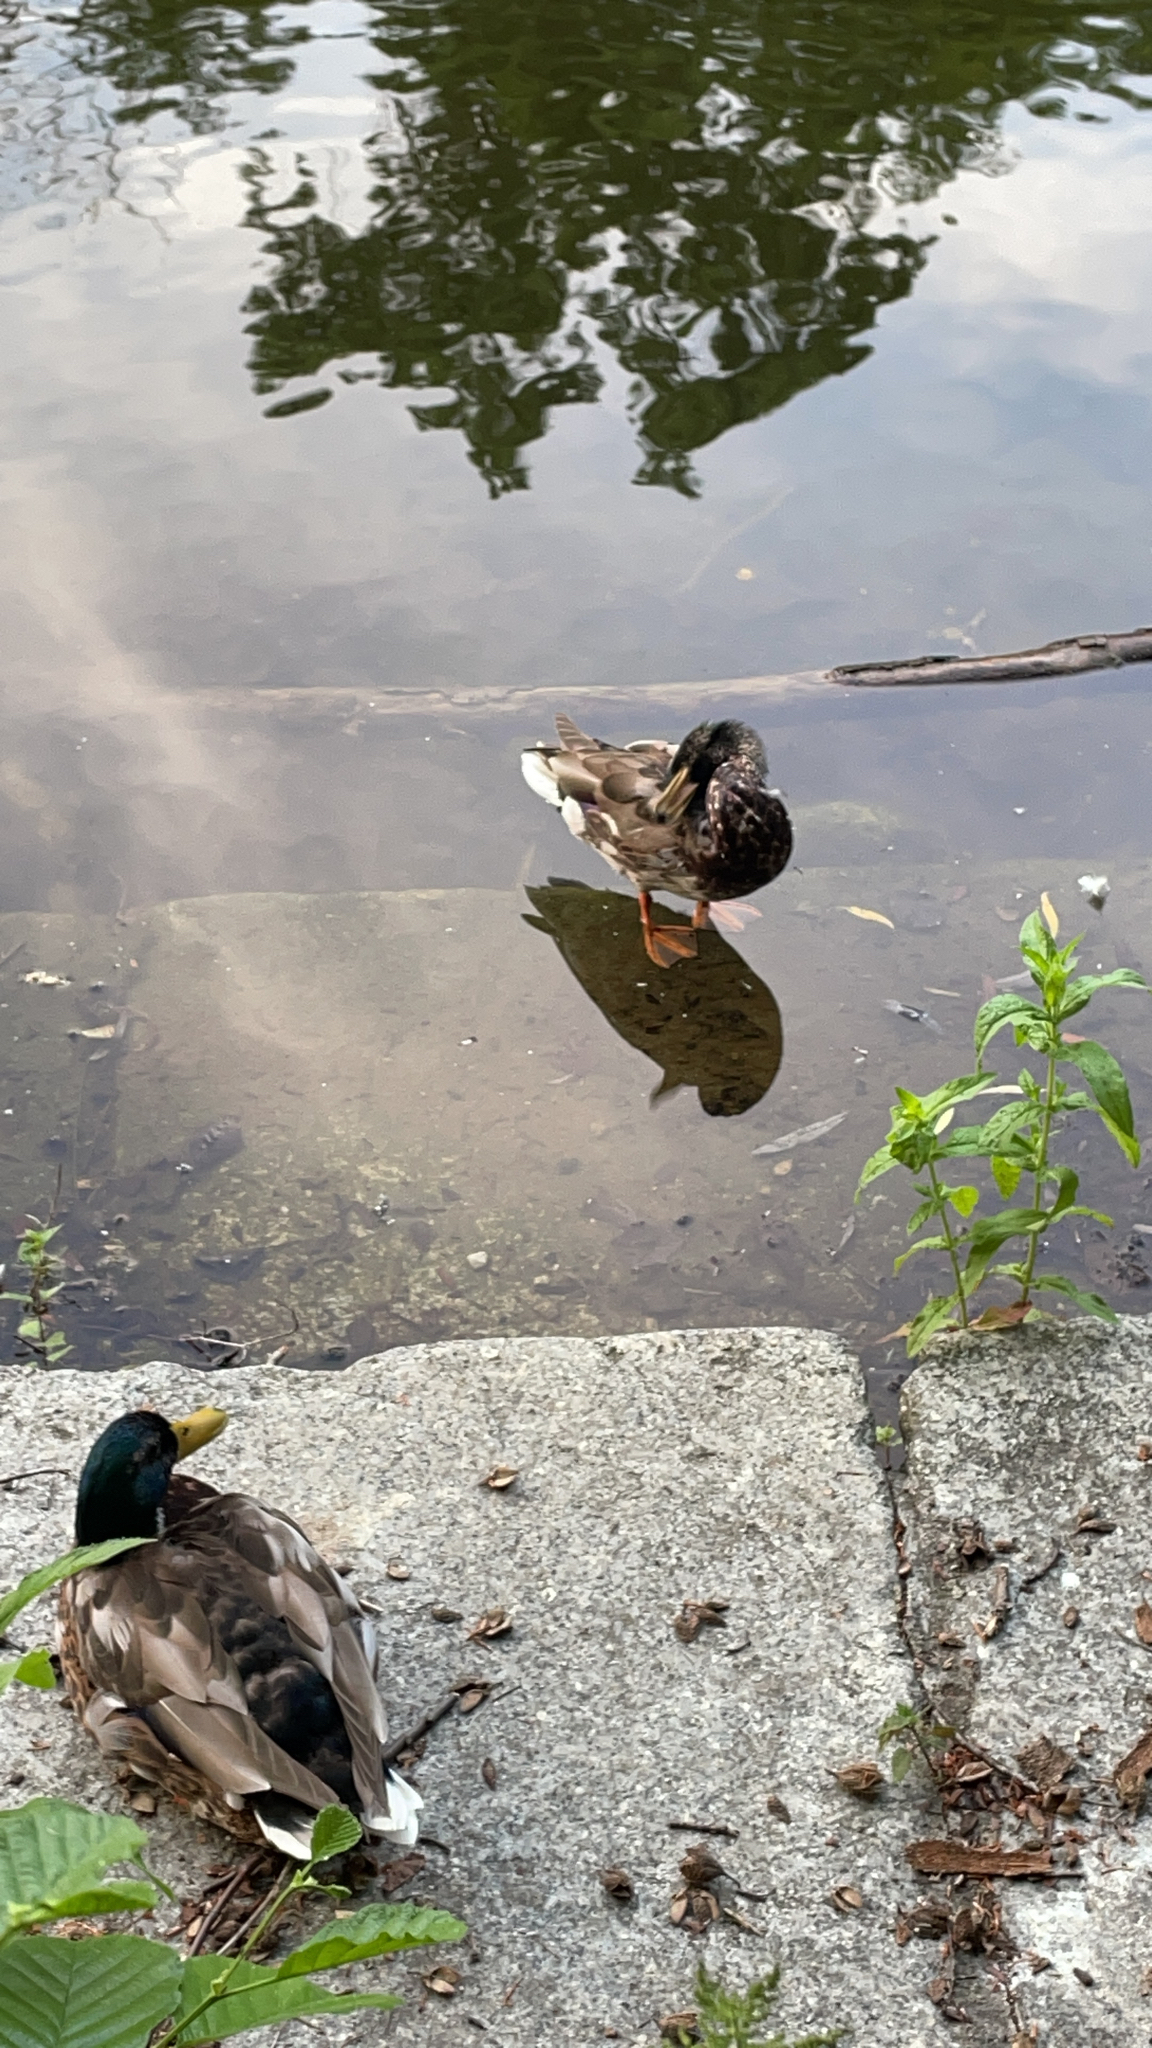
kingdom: Animalia
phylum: Chordata
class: Aves
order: Anseriformes
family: Anatidae
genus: Anas
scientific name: Anas platyrhynchos
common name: Mallard
